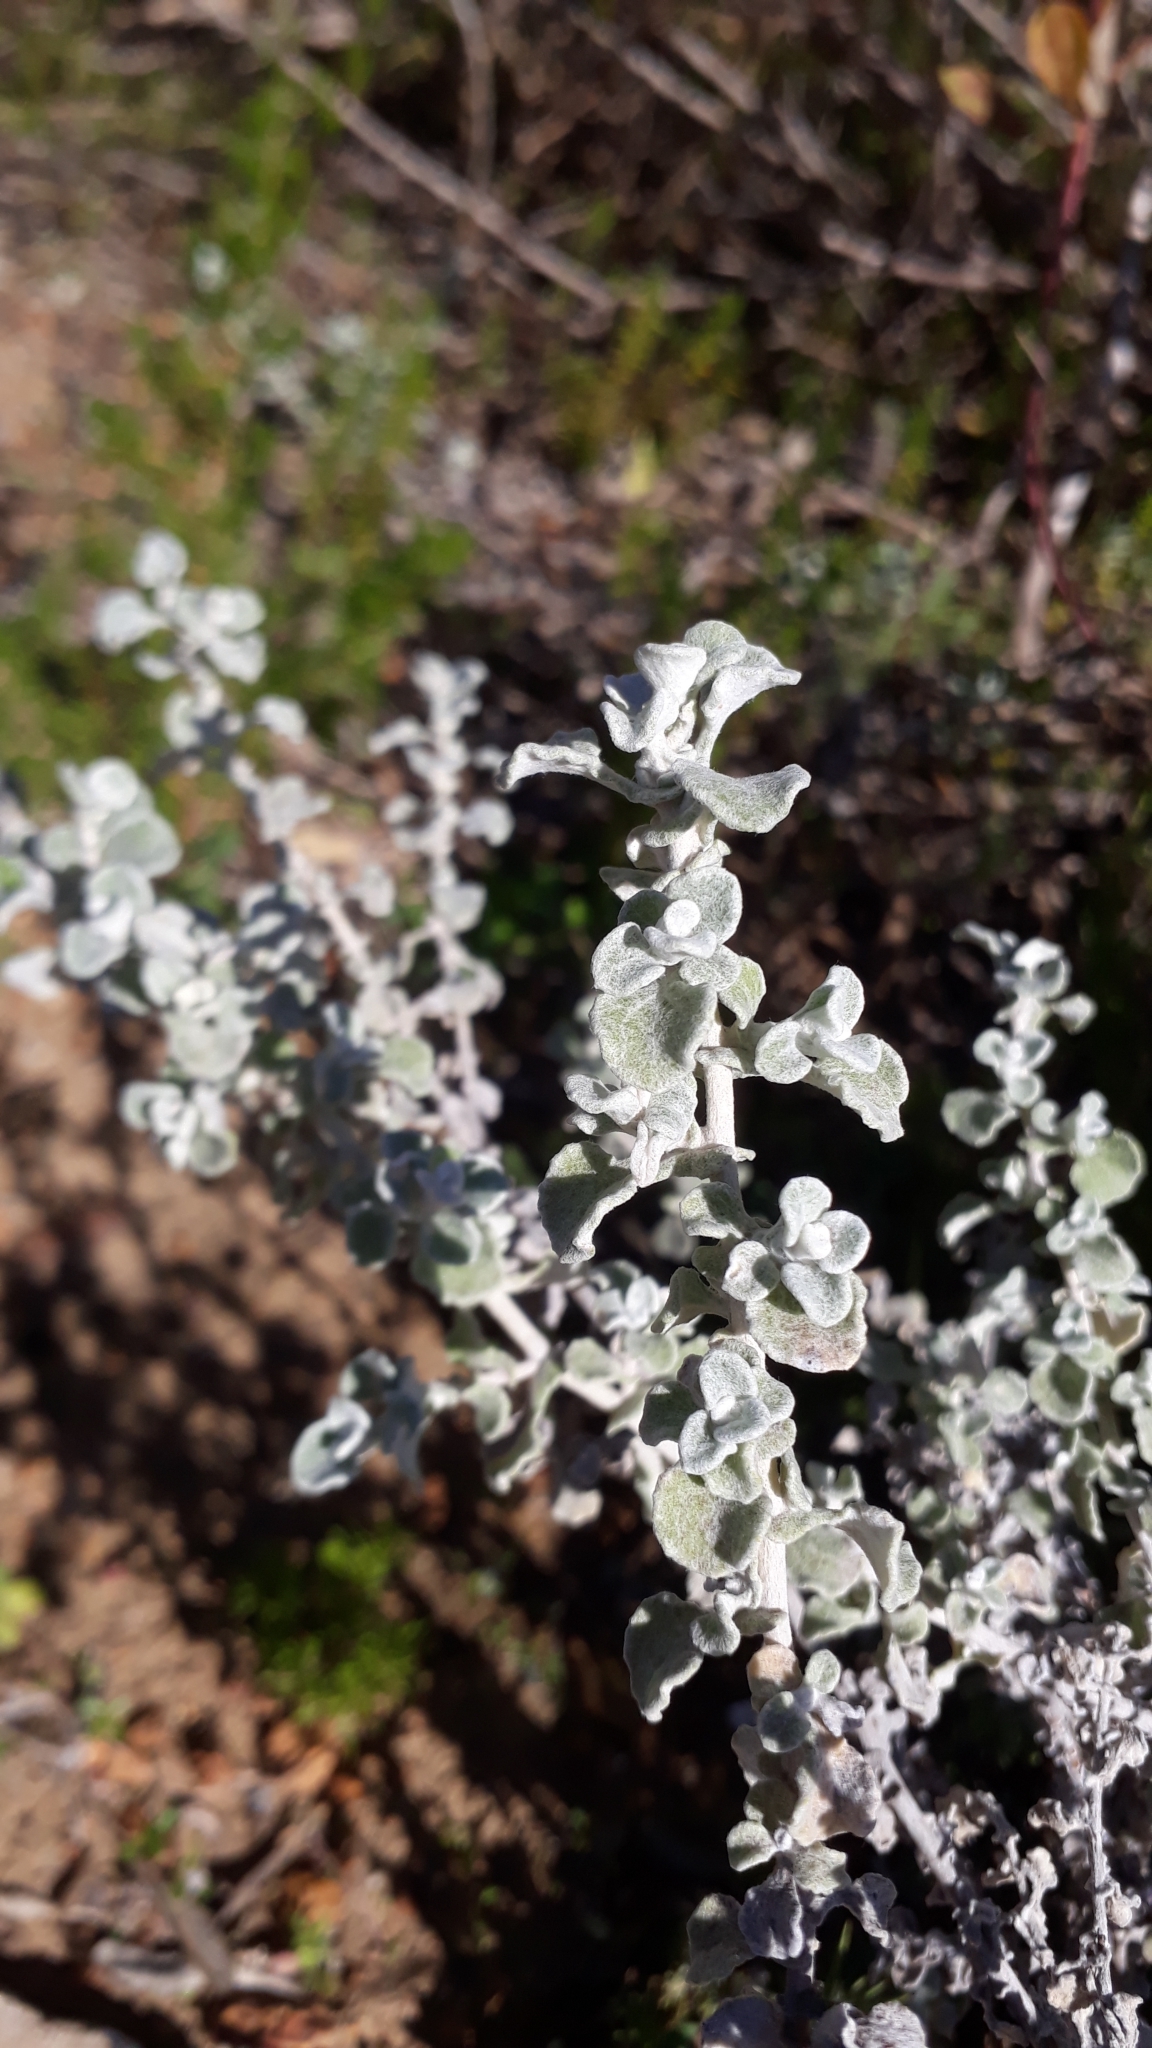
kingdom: Plantae
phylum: Tracheophyta
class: Magnoliopsida
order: Asterales
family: Asteraceae
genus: Helichrysum
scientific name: Helichrysum patulum
